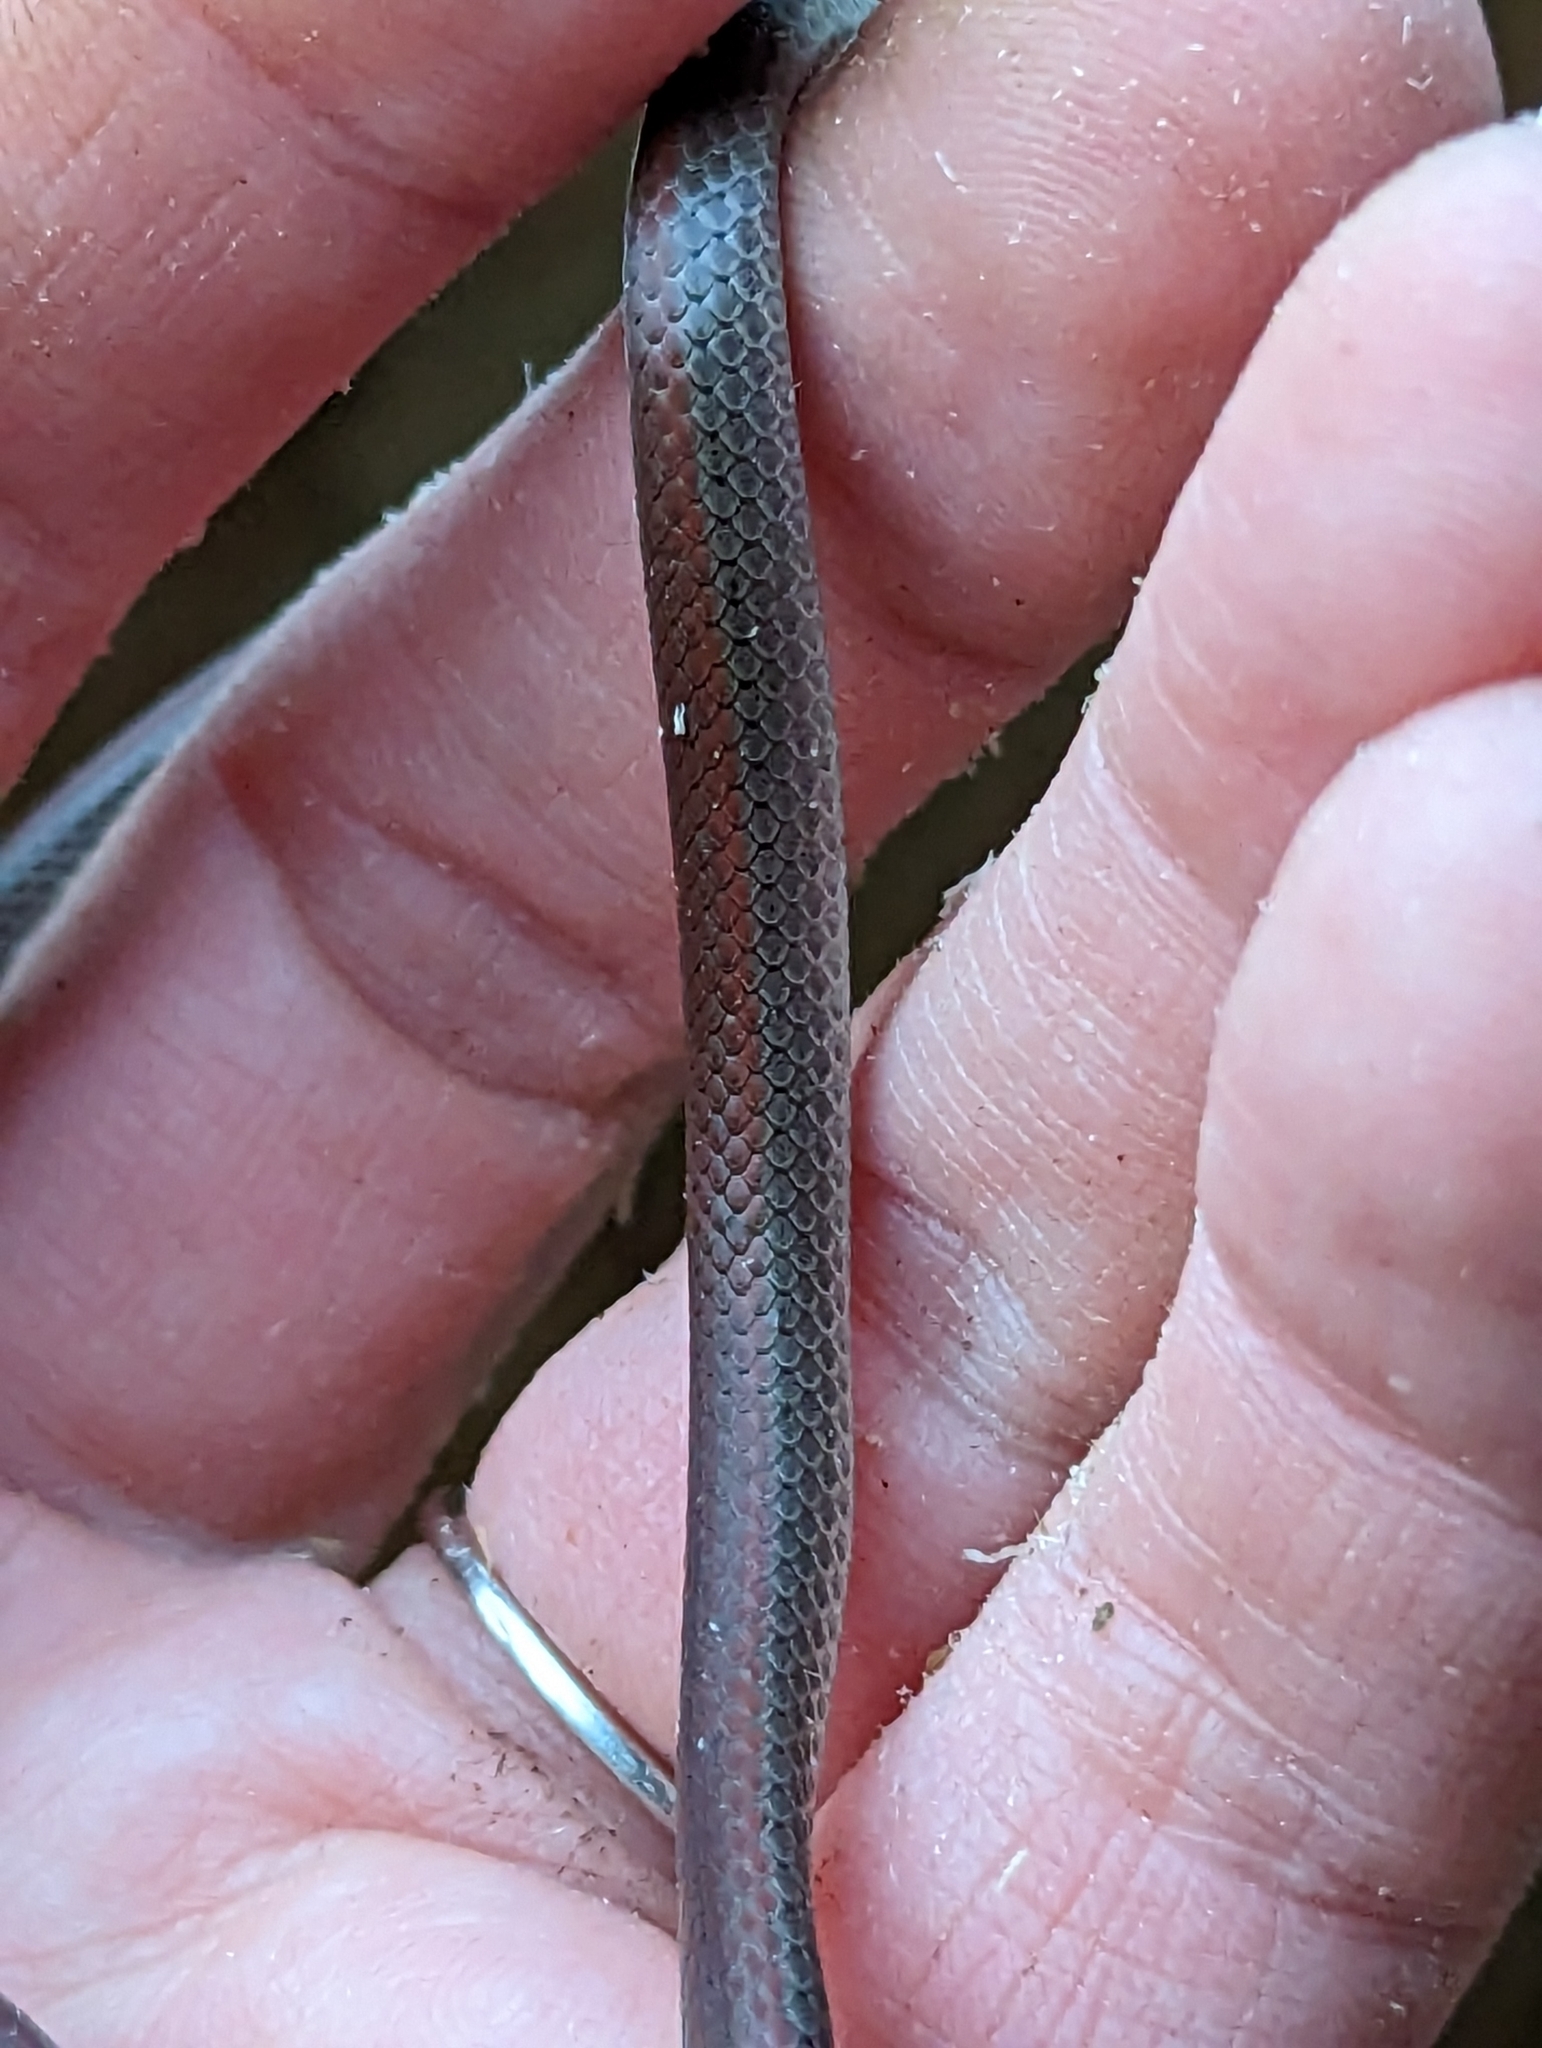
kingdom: Animalia
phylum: Chordata
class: Squamata
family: Colubridae
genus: Contia
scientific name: Contia longicaudae
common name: Forest sharp-tailed snake
